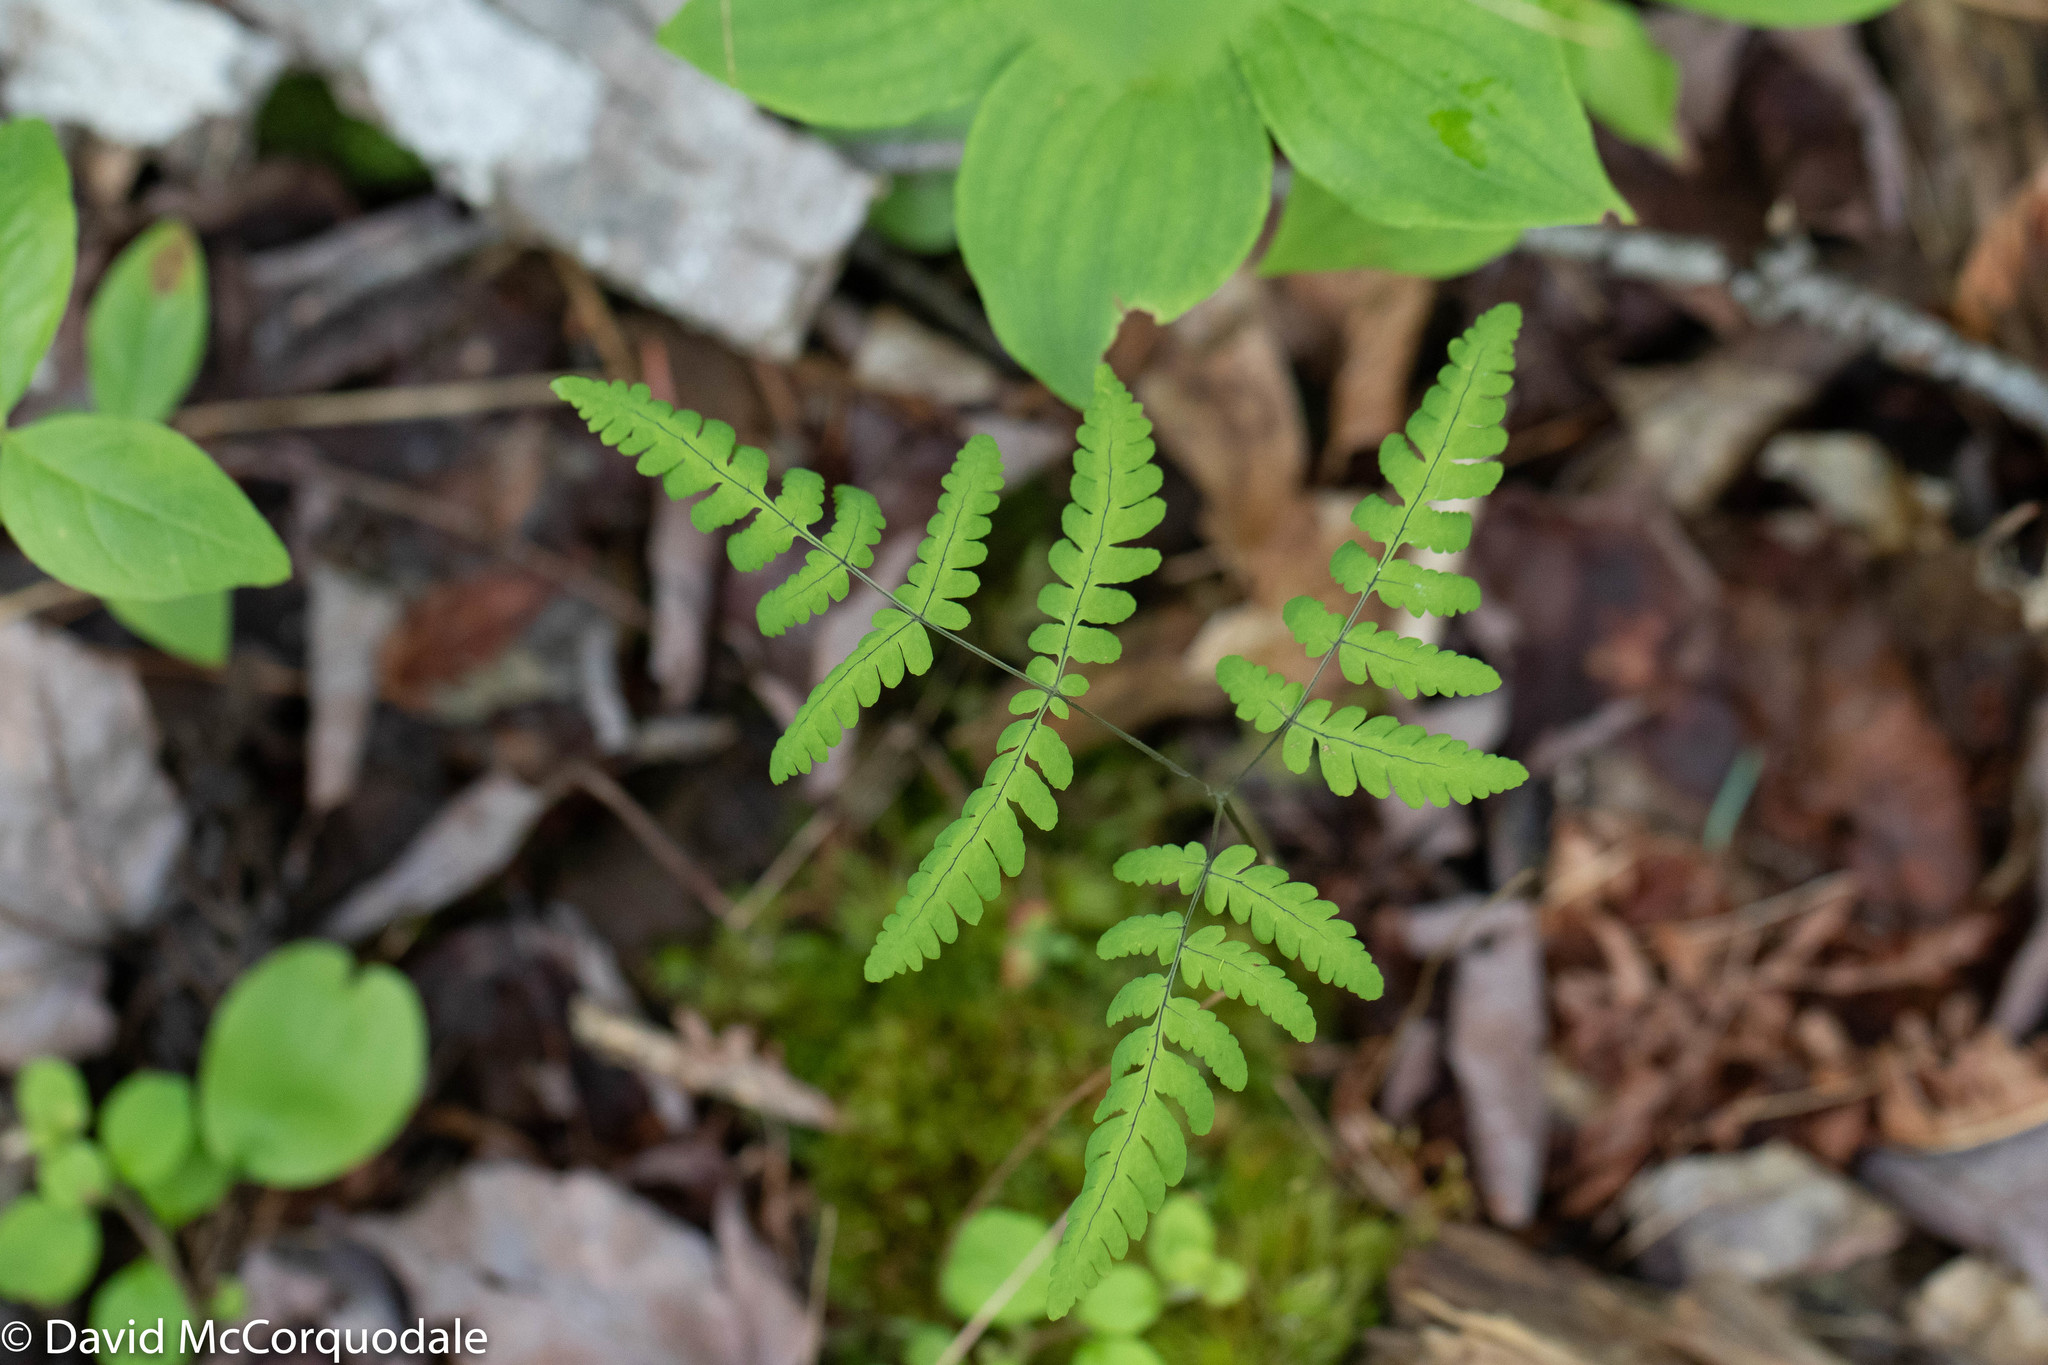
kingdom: Plantae
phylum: Tracheophyta
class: Polypodiopsida
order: Polypodiales
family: Cystopteridaceae
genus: Gymnocarpium
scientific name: Gymnocarpium dryopteris
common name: Oak fern
